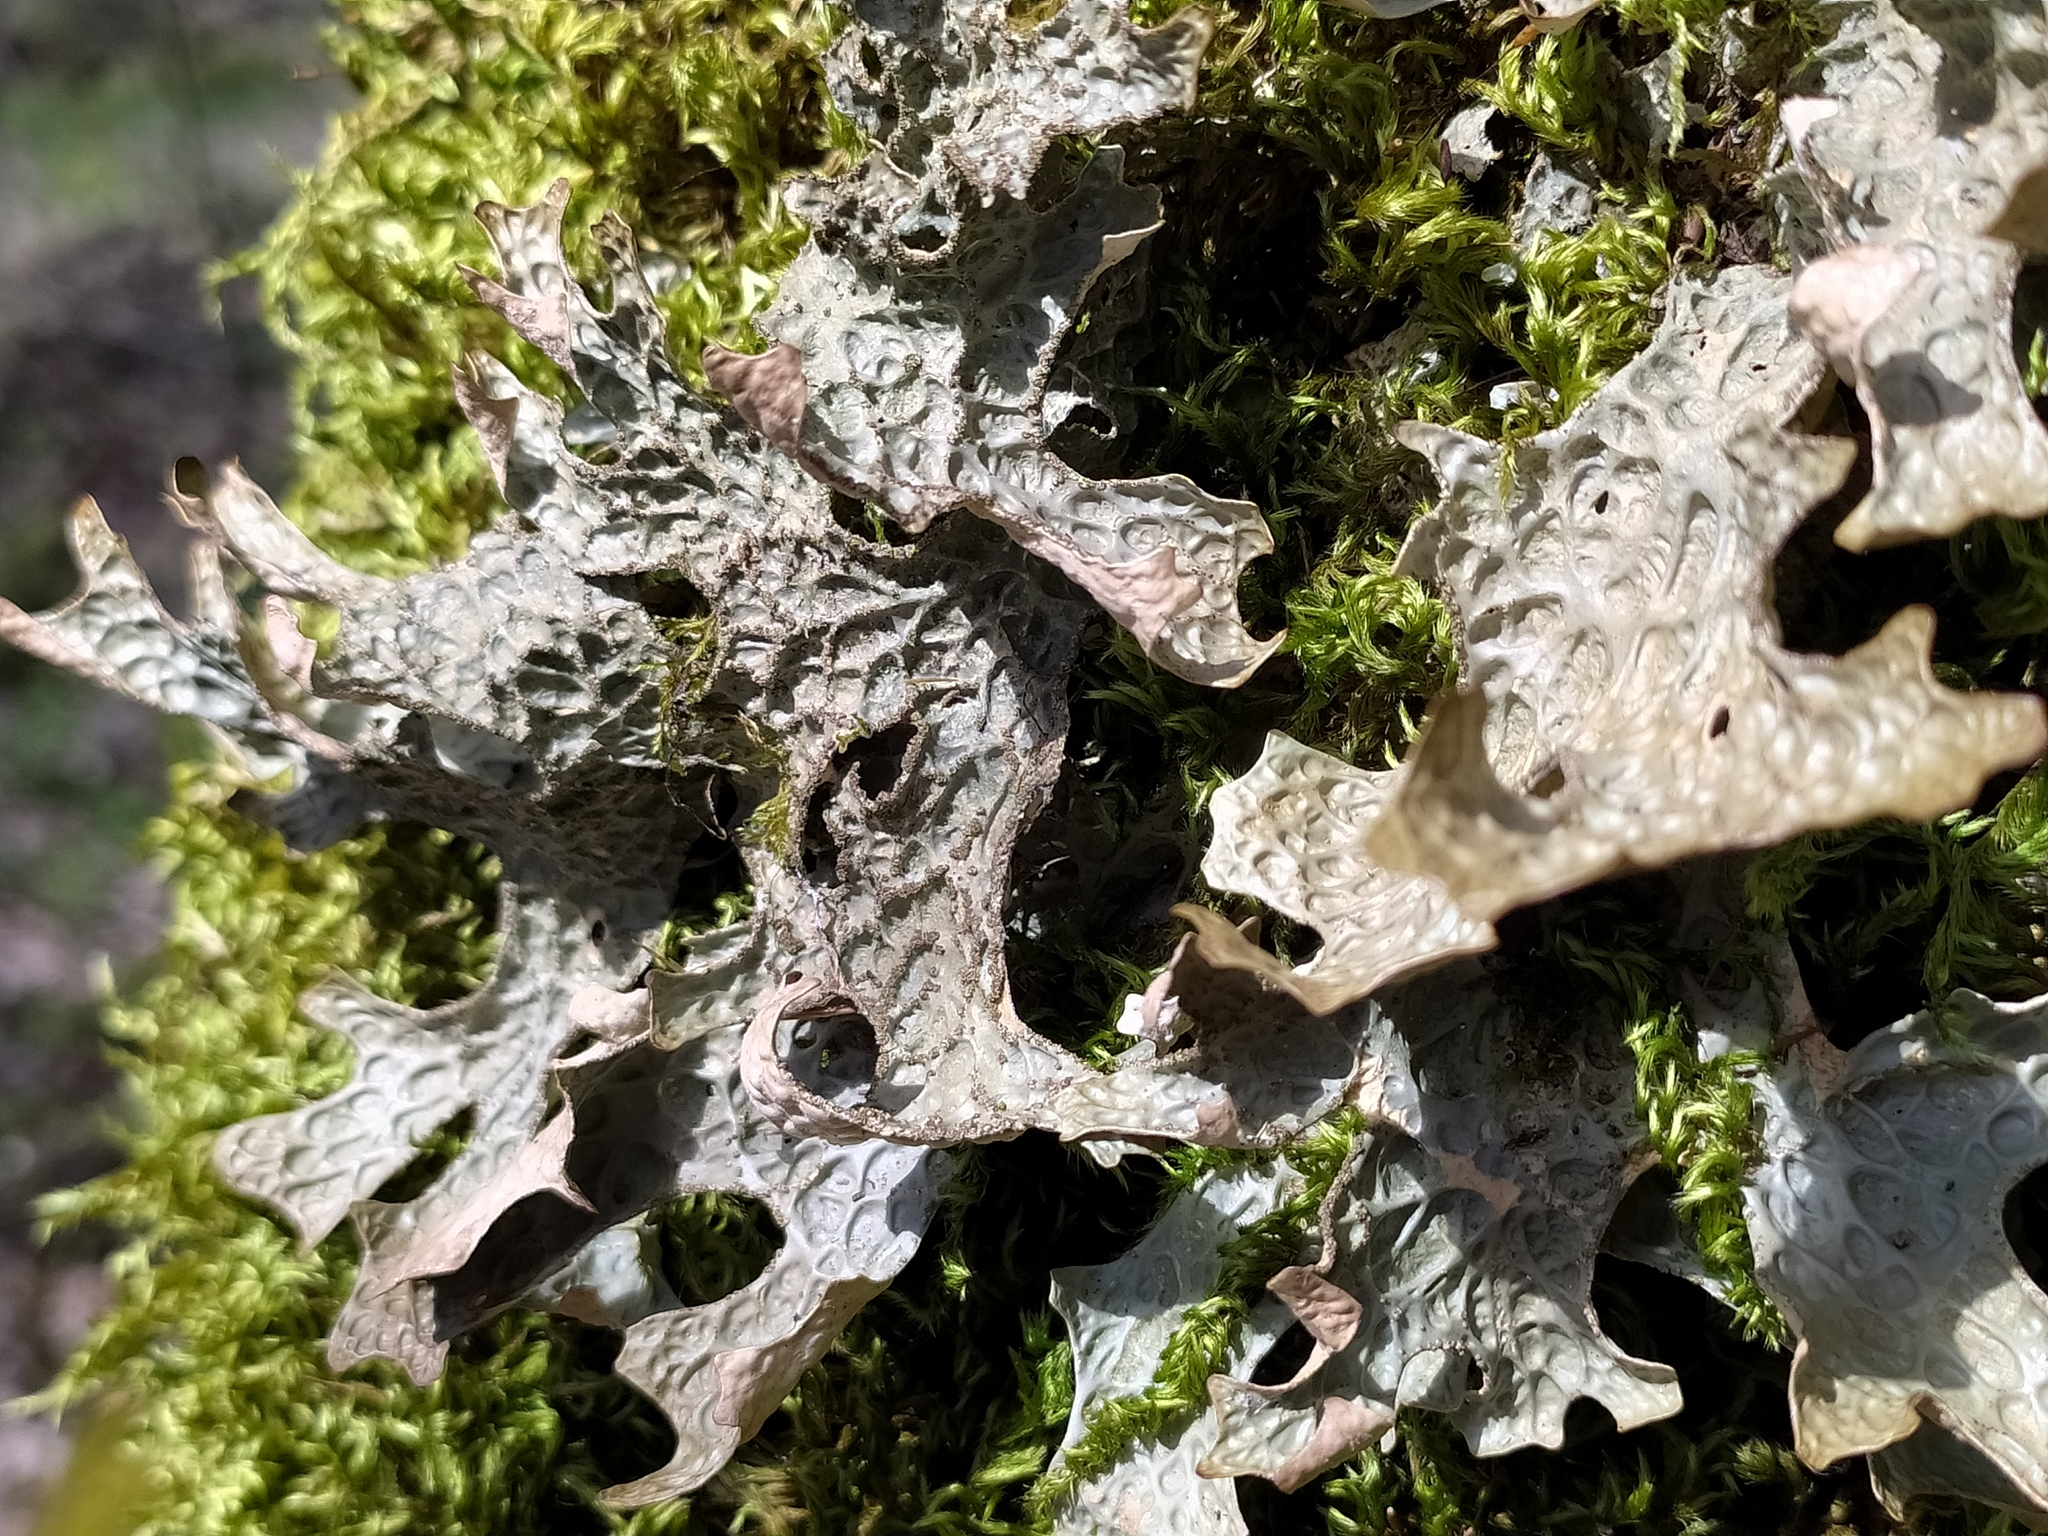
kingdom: Fungi
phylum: Ascomycota
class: Lecanoromycetes
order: Peltigerales
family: Lobariaceae
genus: Lobaria
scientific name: Lobaria pulmonaria
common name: Lungwort
